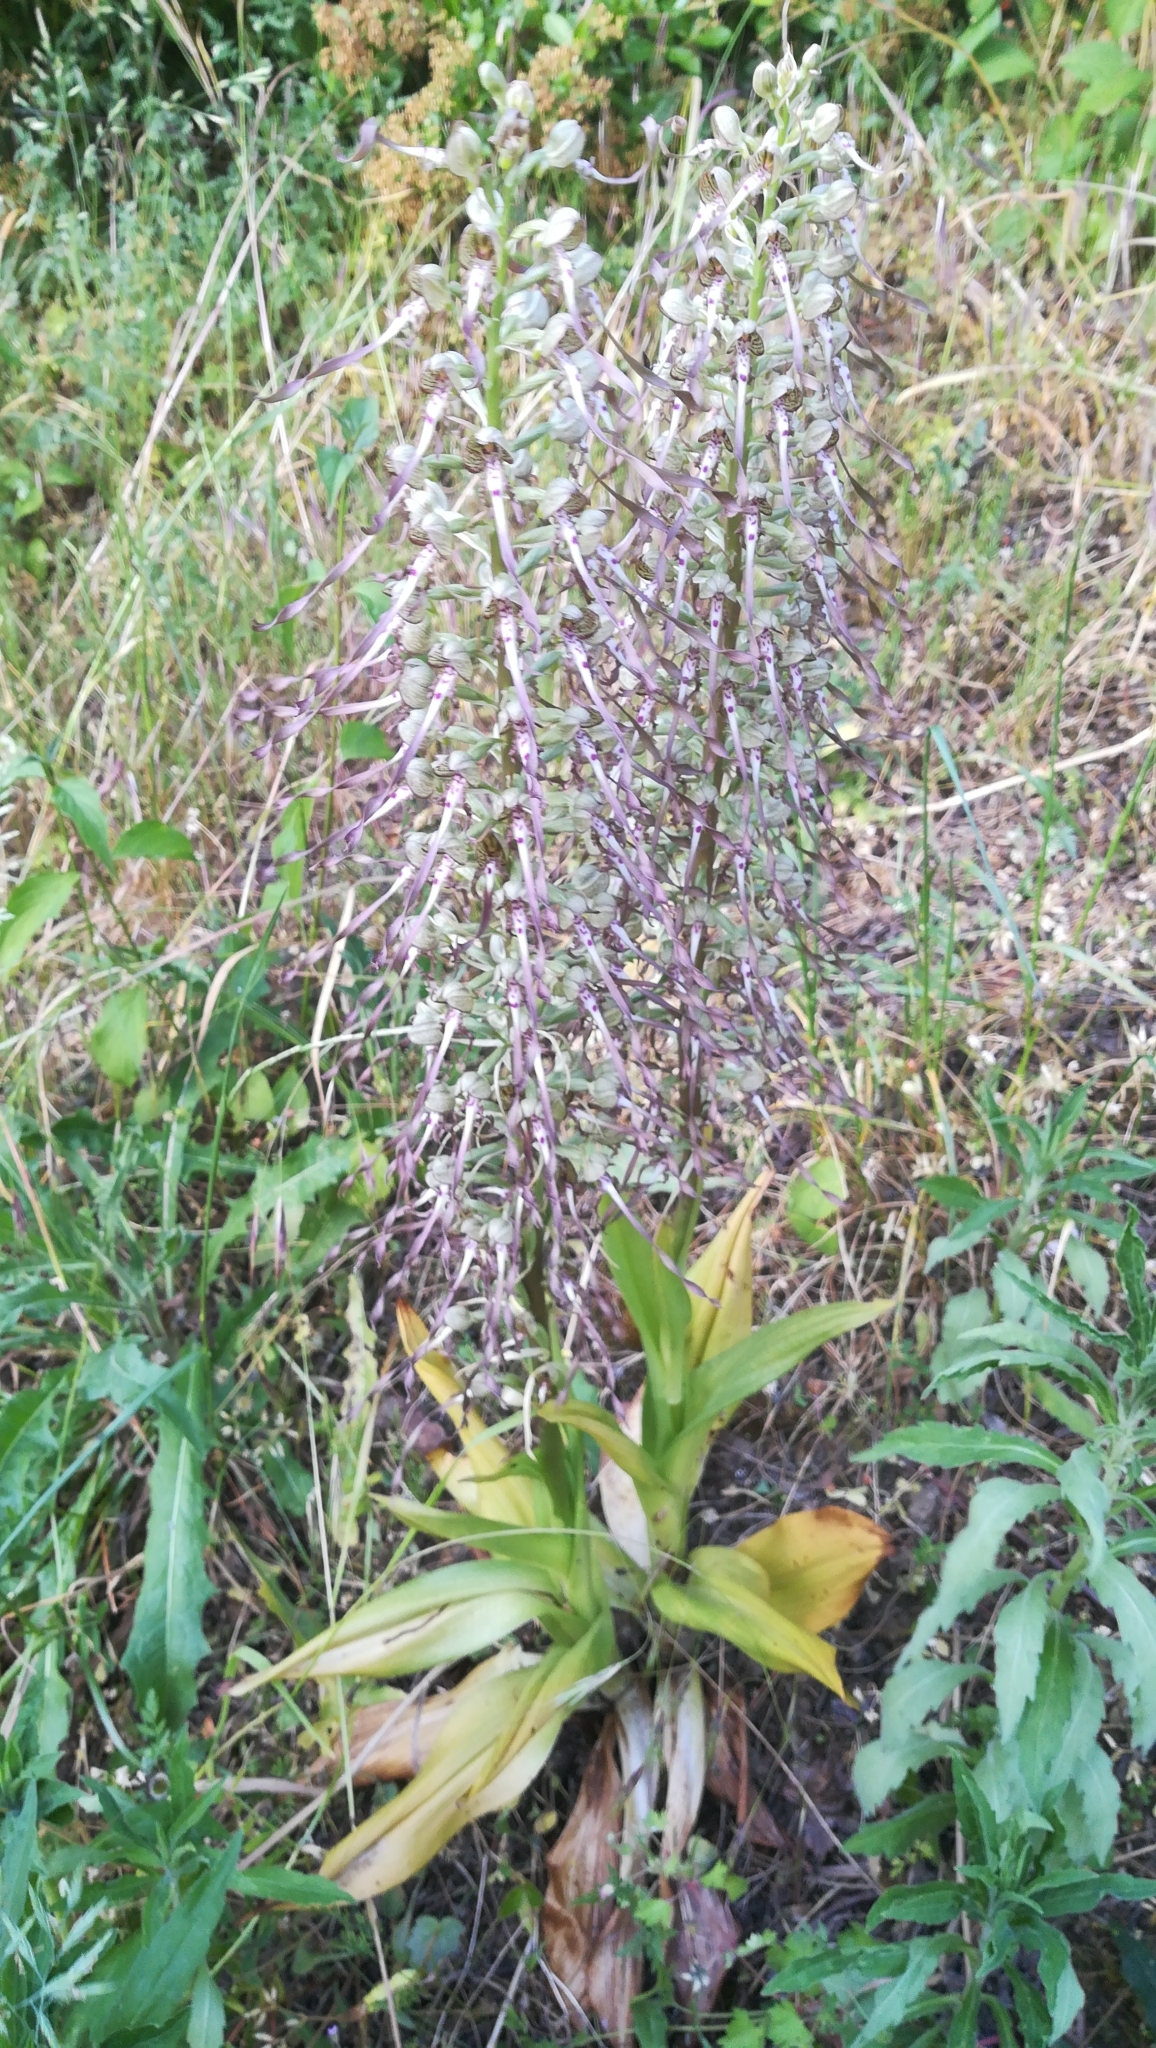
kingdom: Plantae
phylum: Tracheophyta
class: Liliopsida
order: Asparagales
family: Orchidaceae
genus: Himantoglossum
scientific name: Himantoglossum hircinum
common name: Lizard orchid
